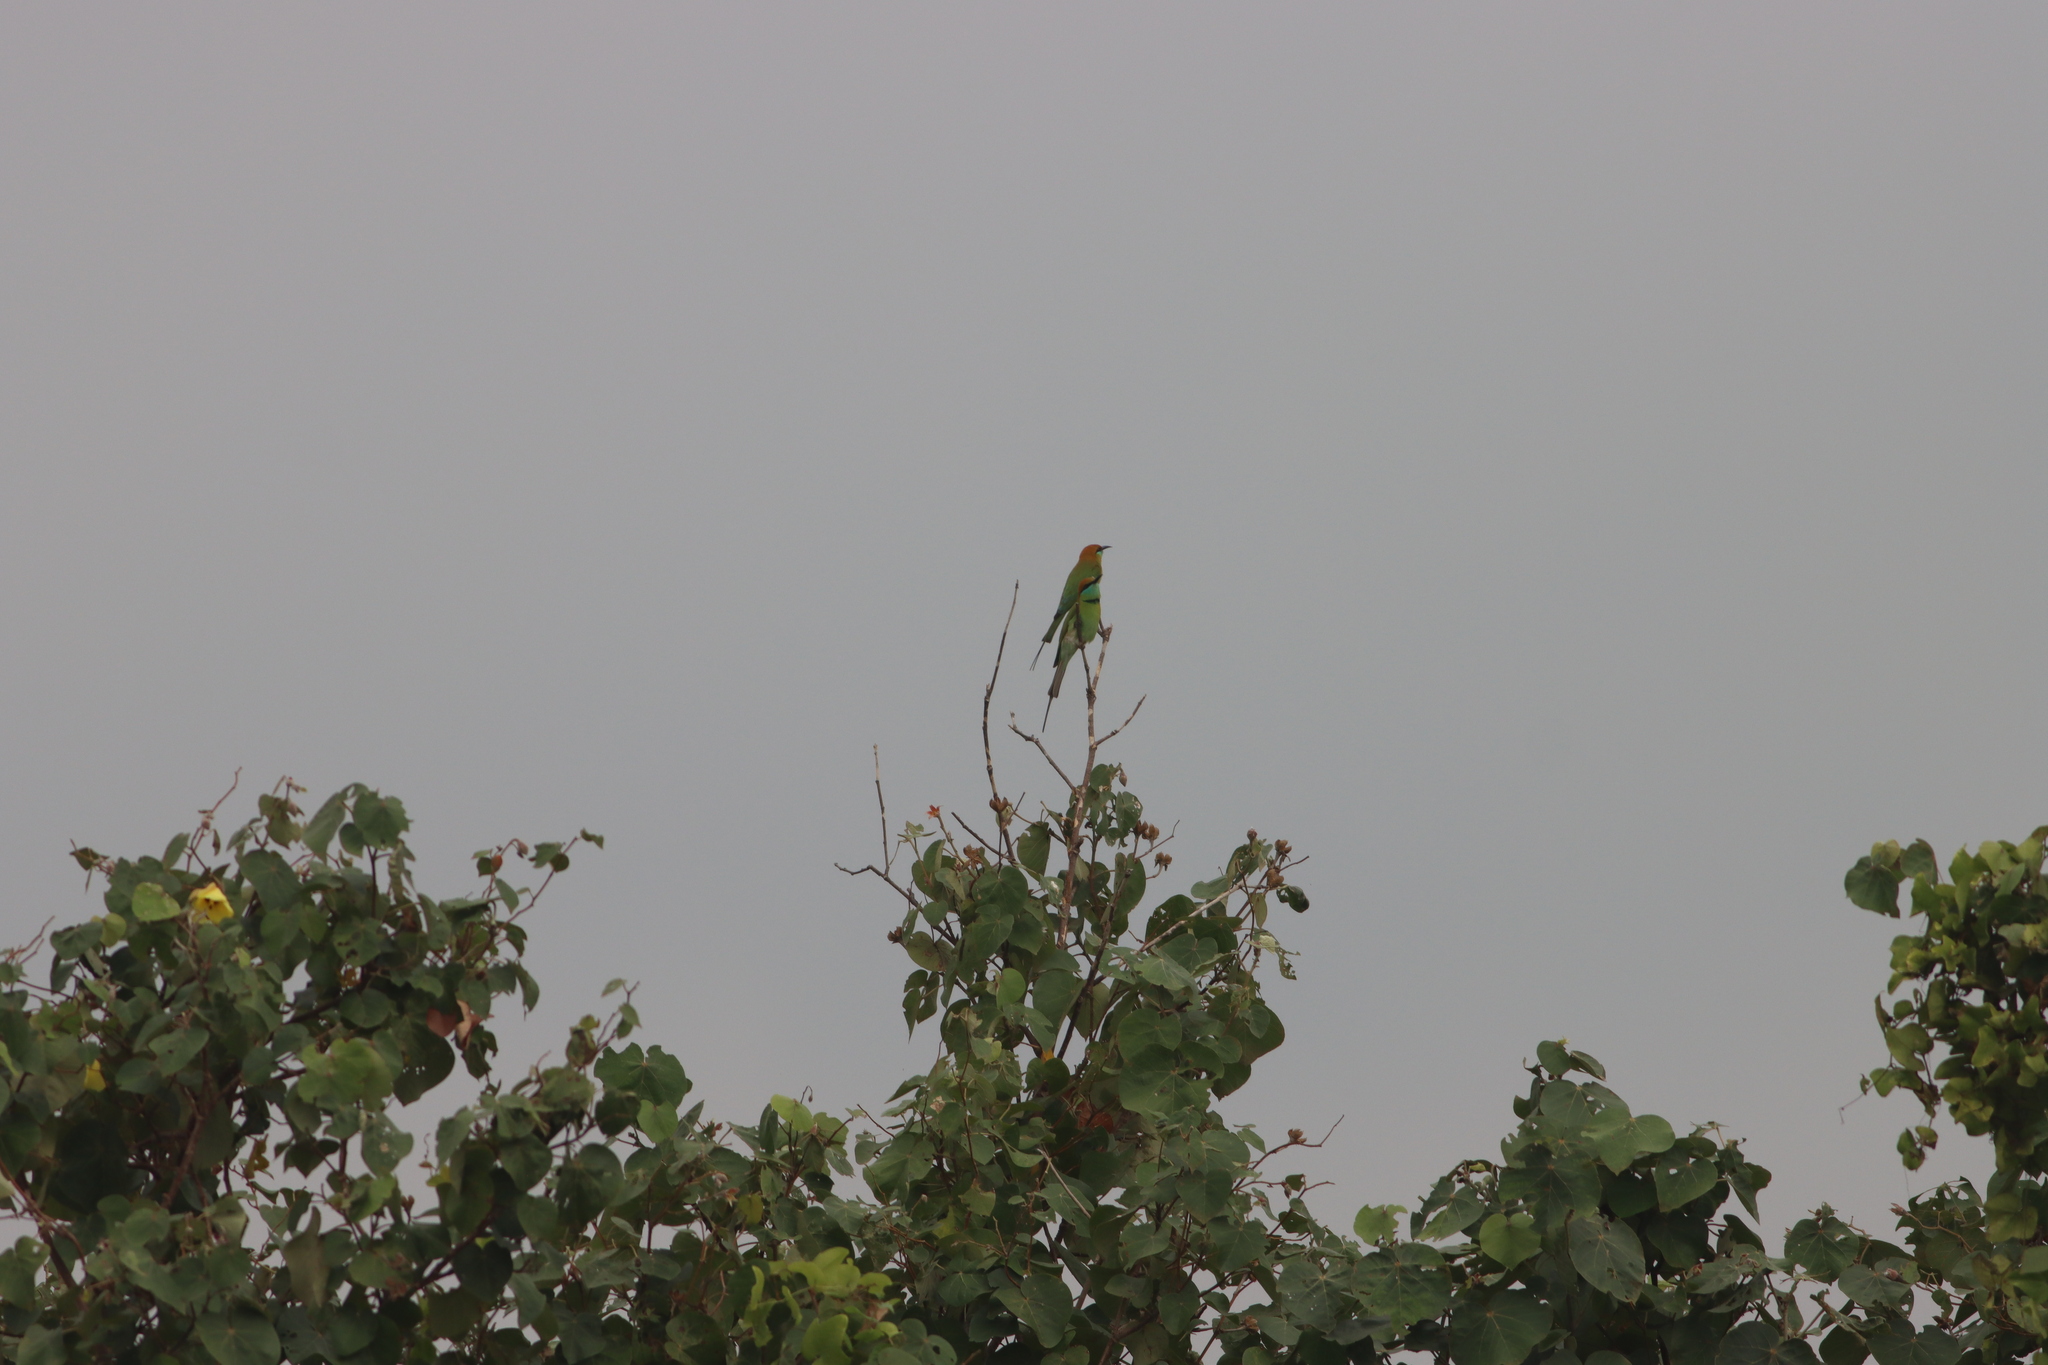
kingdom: Animalia
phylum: Chordata
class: Aves
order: Coraciiformes
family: Meropidae
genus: Merops
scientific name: Merops orientalis
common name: Green bee-eater
